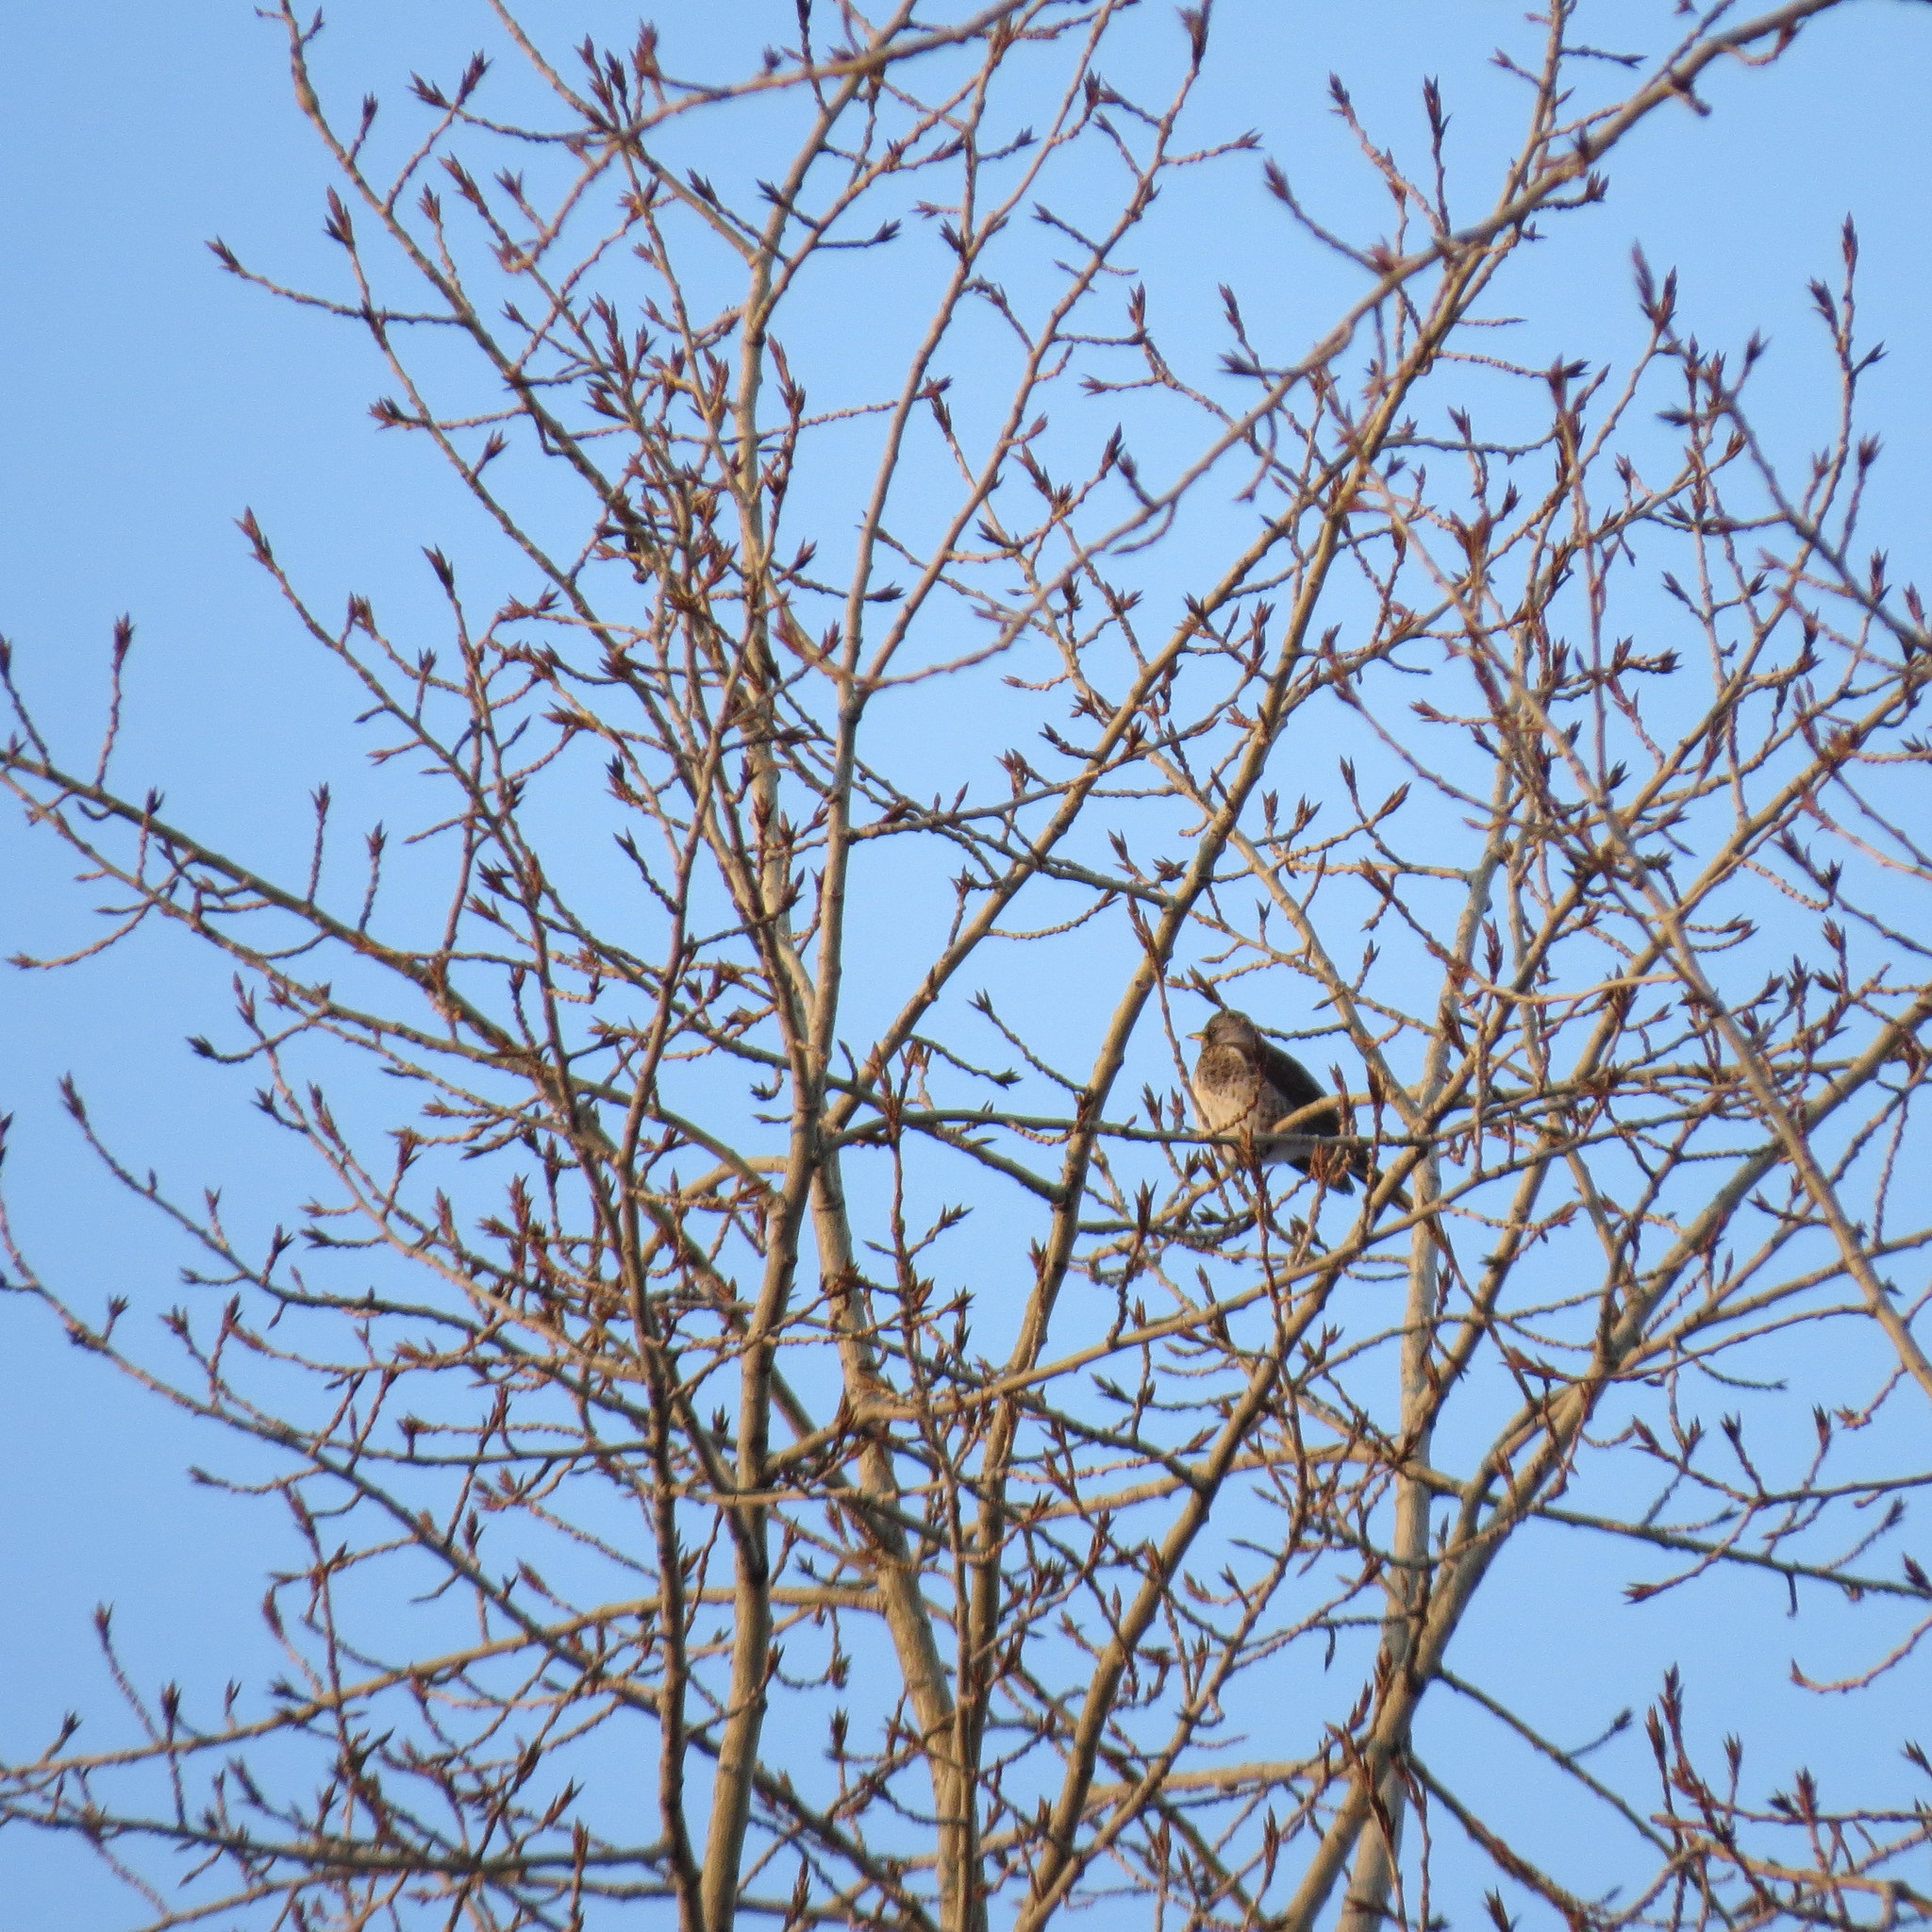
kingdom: Animalia
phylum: Chordata
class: Aves
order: Passeriformes
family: Turdidae
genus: Turdus
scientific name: Turdus pilaris
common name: Fieldfare
